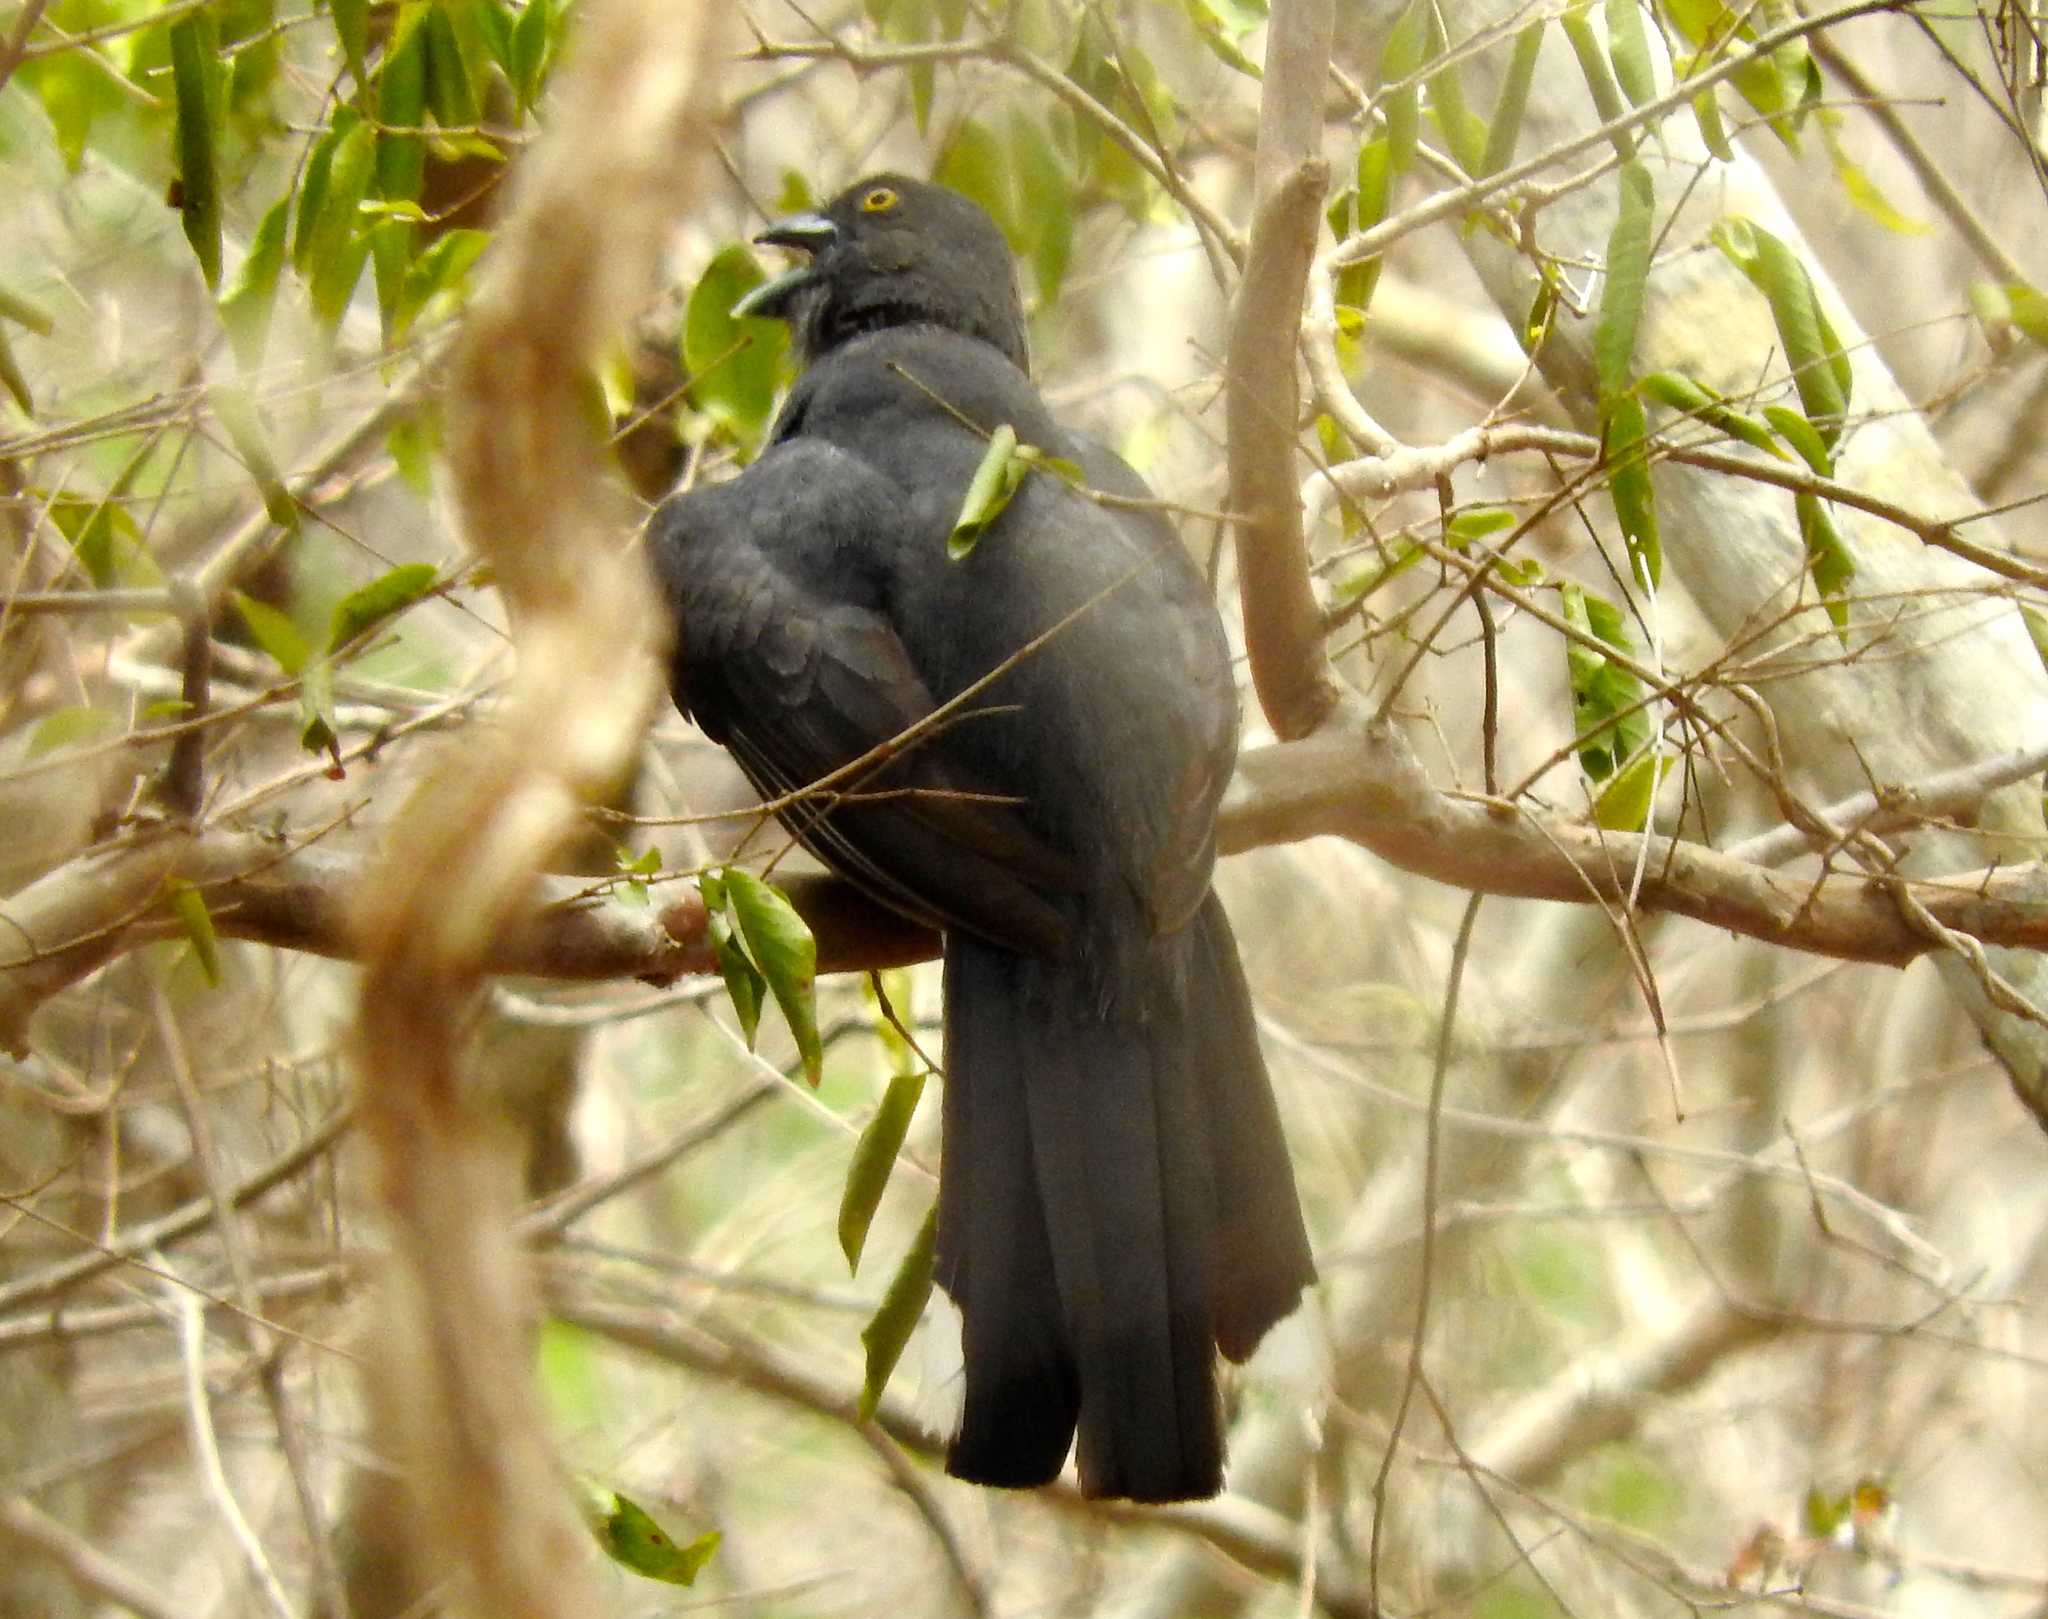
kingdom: Animalia
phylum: Chordata
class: Aves
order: Trogoniformes
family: Trogonidae
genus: Trogon
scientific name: Trogon citreolus
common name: Citreoline trogon
